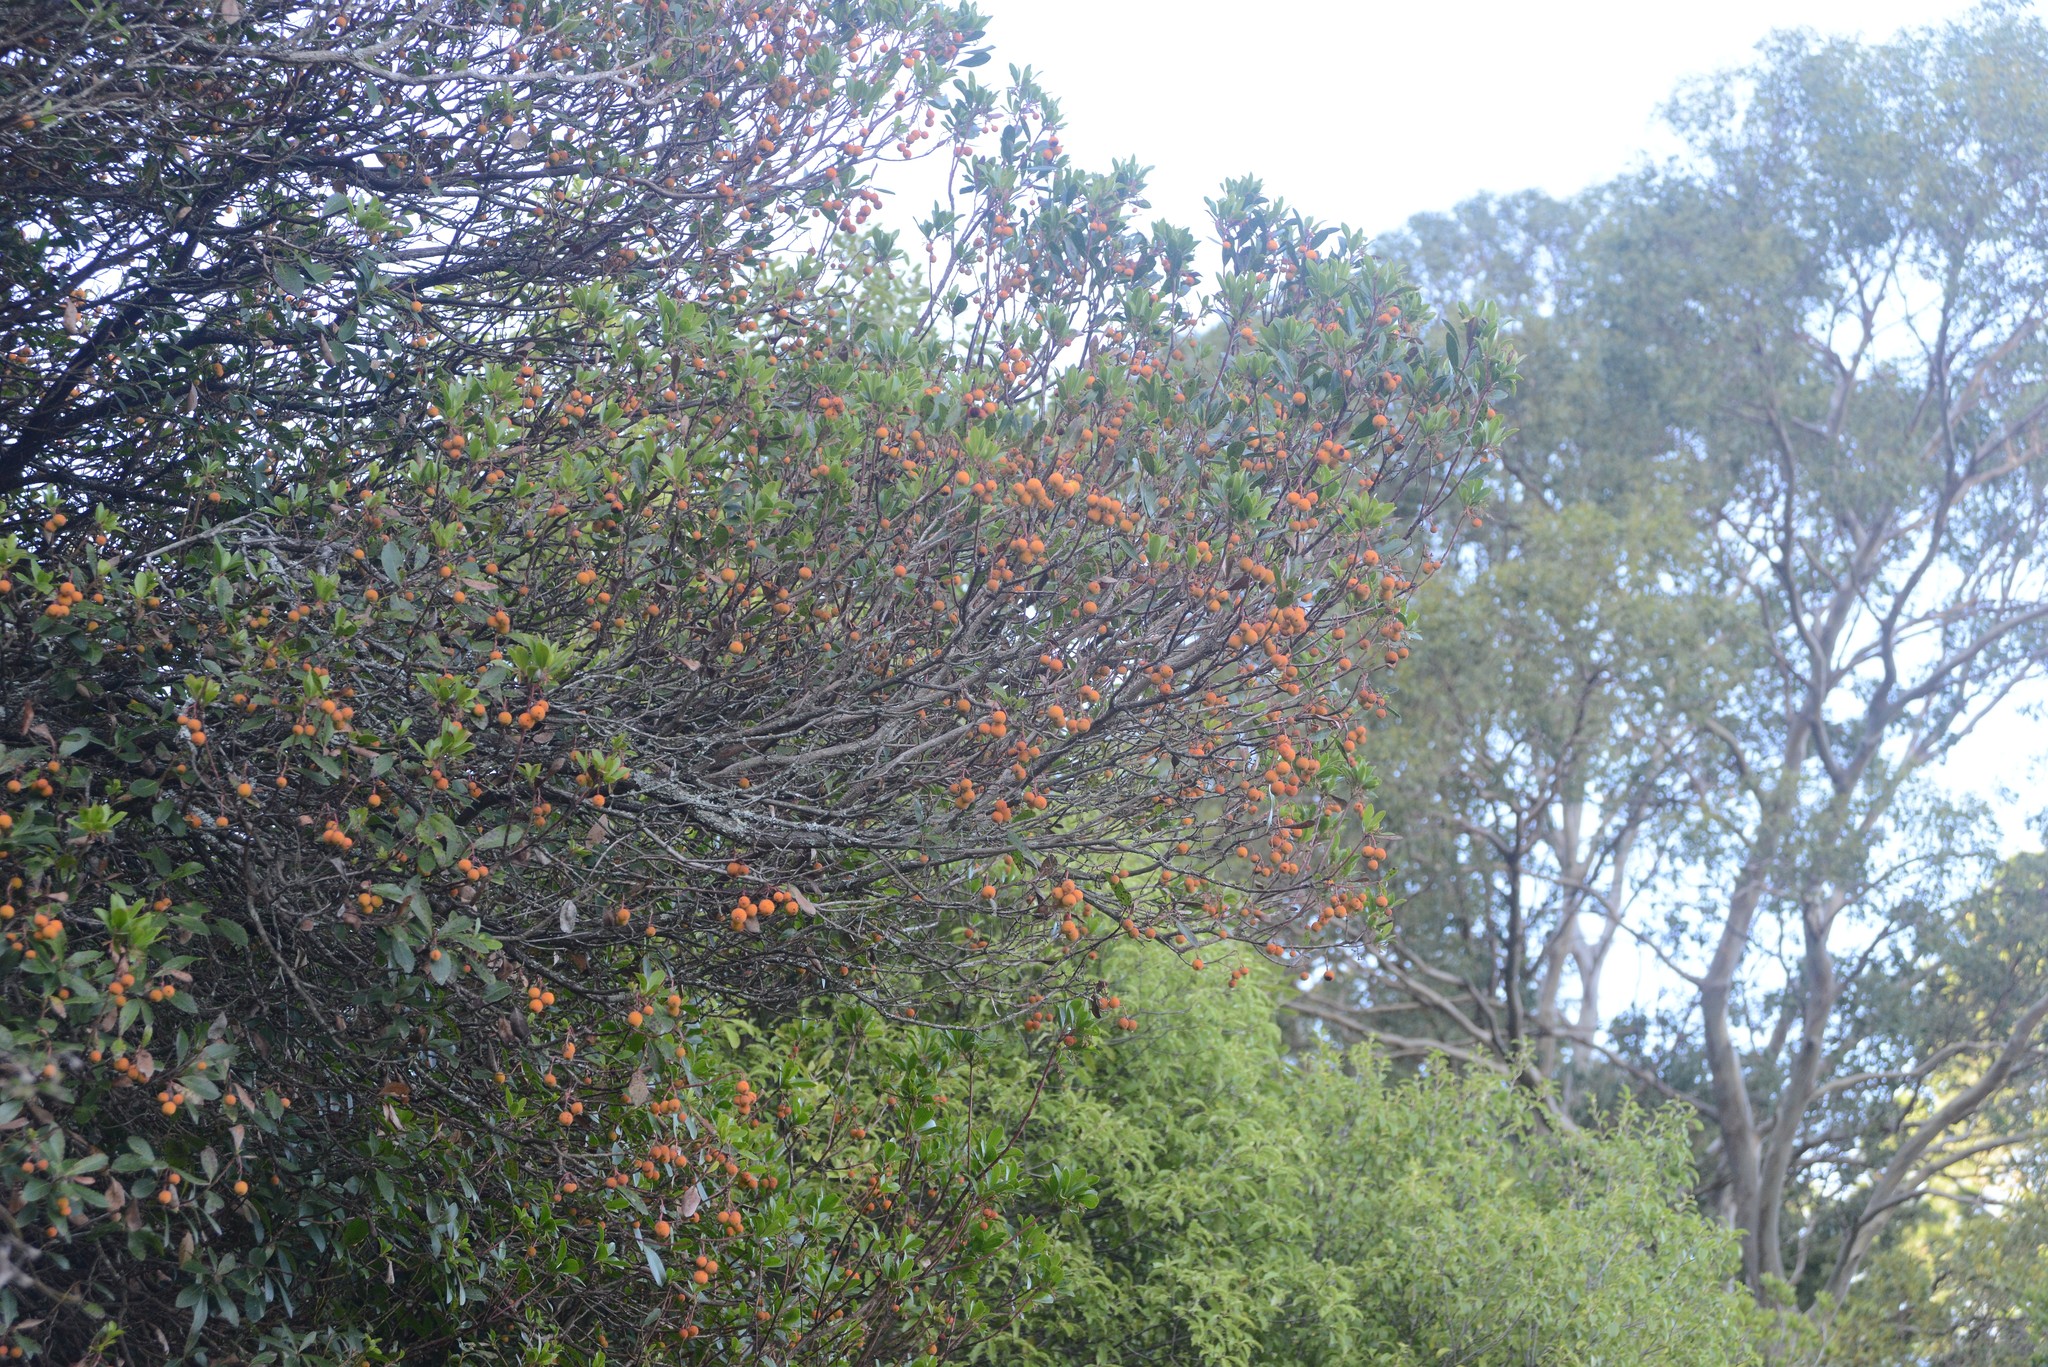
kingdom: Plantae
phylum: Tracheophyta
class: Magnoliopsida
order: Ericales
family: Ericaceae
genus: Arbutus
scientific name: Arbutus unedo
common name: Strawberry-tree
